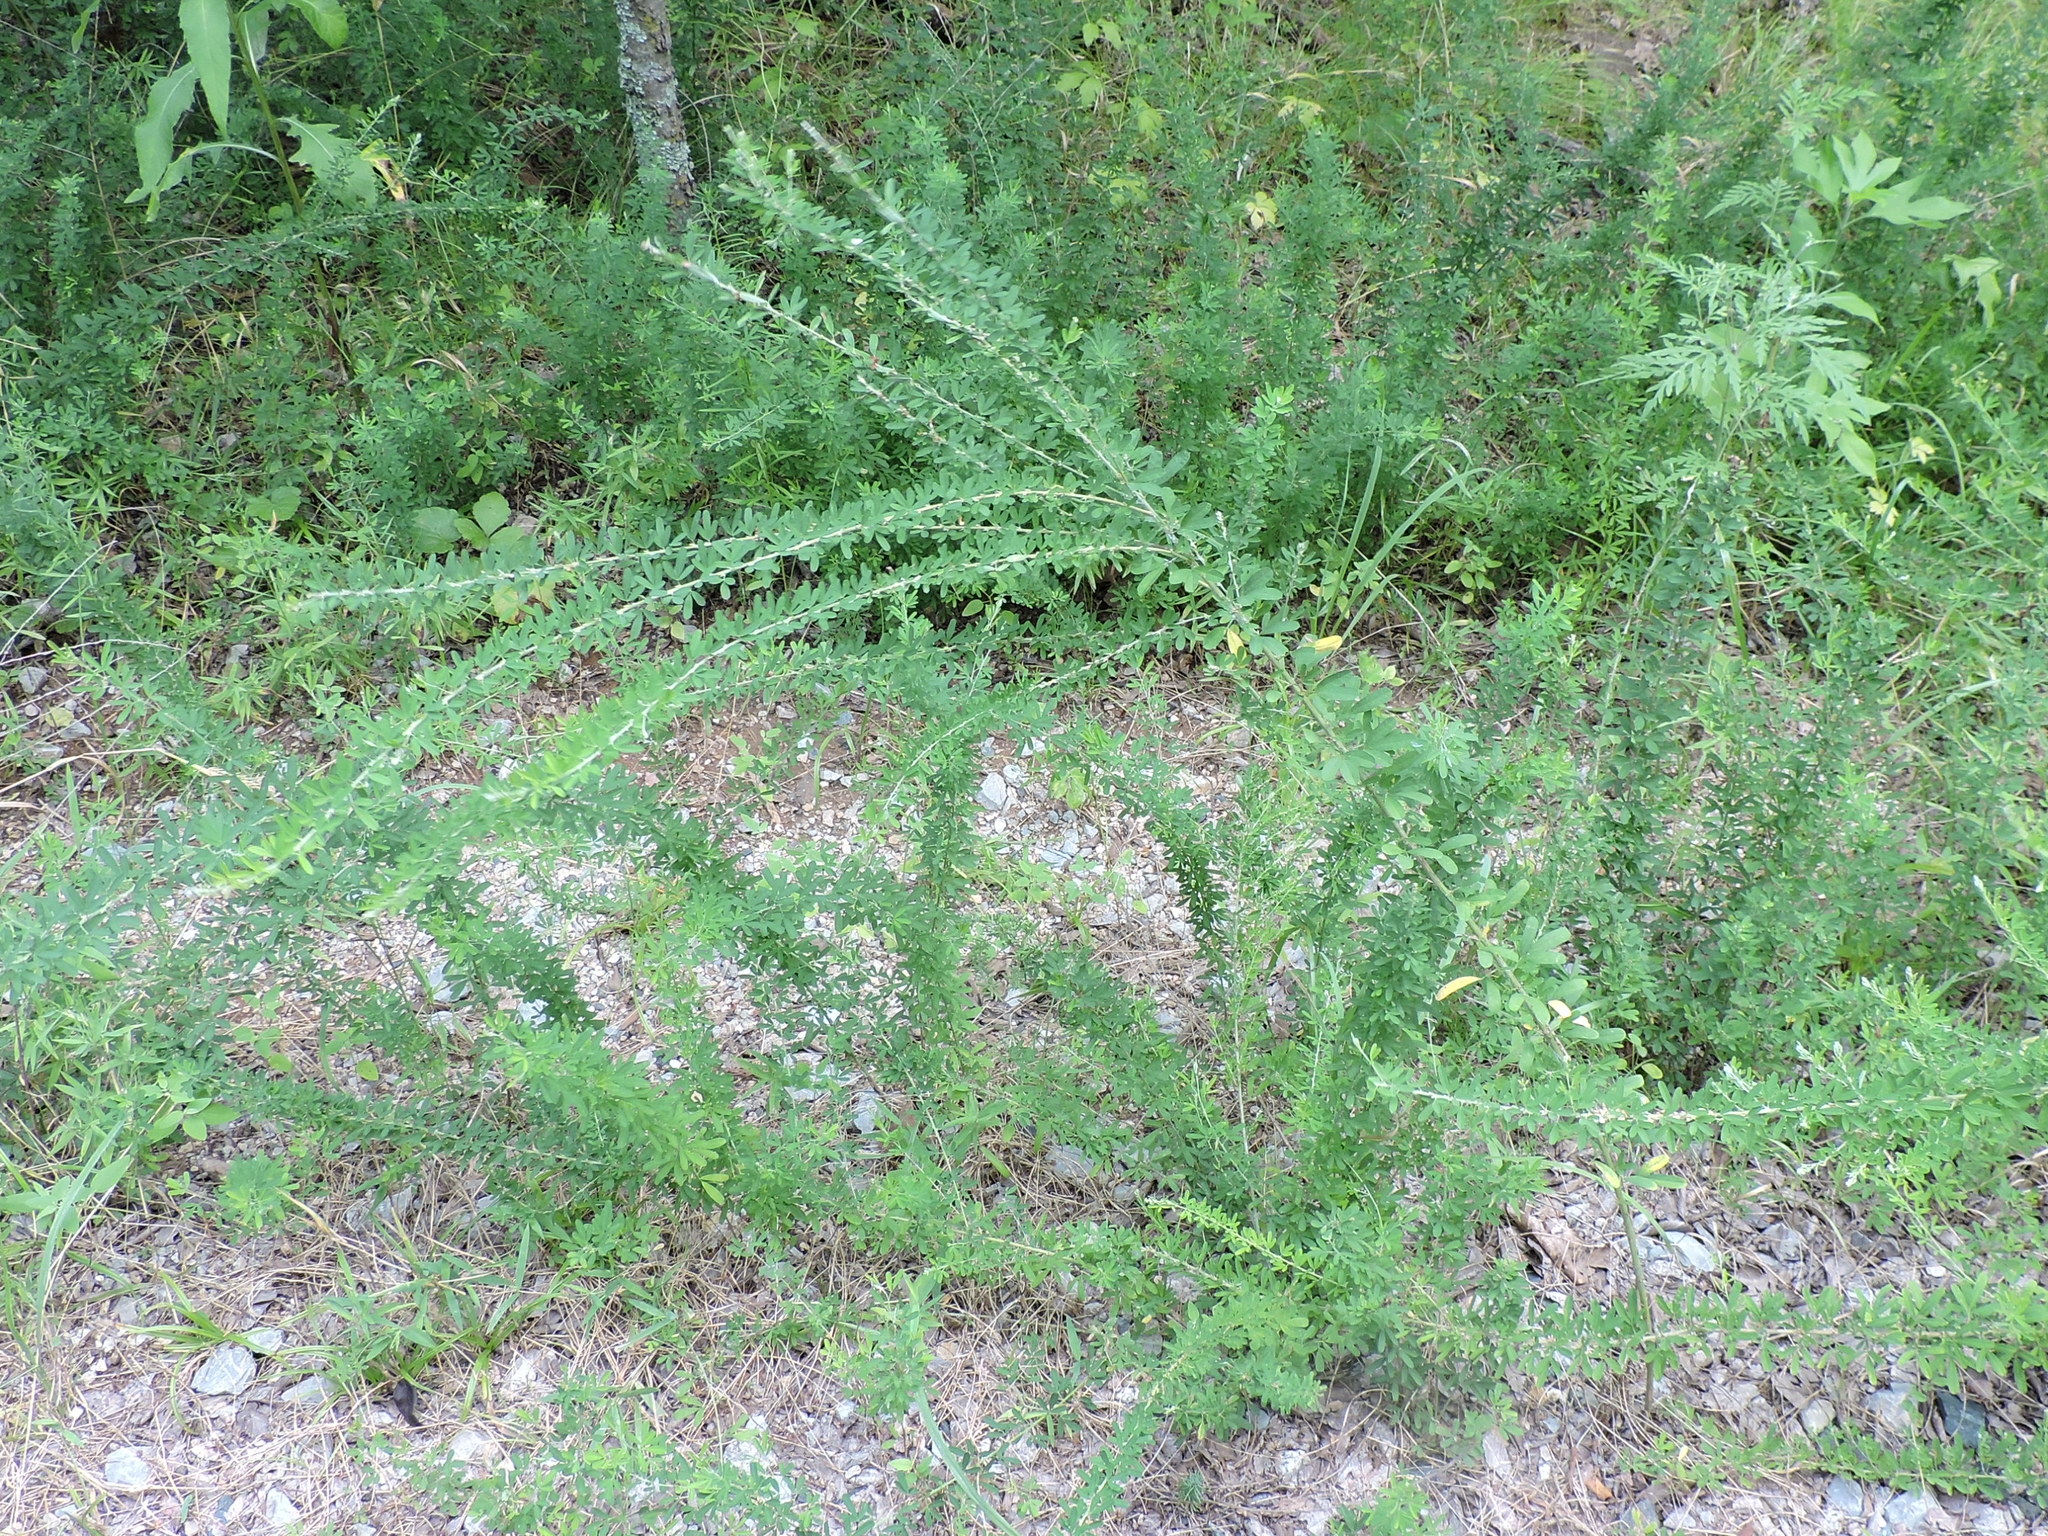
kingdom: Plantae
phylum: Tracheophyta
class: Magnoliopsida
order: Fabales
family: Fabaceae
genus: Lespedeza
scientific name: Lespedeza cuneata
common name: Chinese bush-clover
